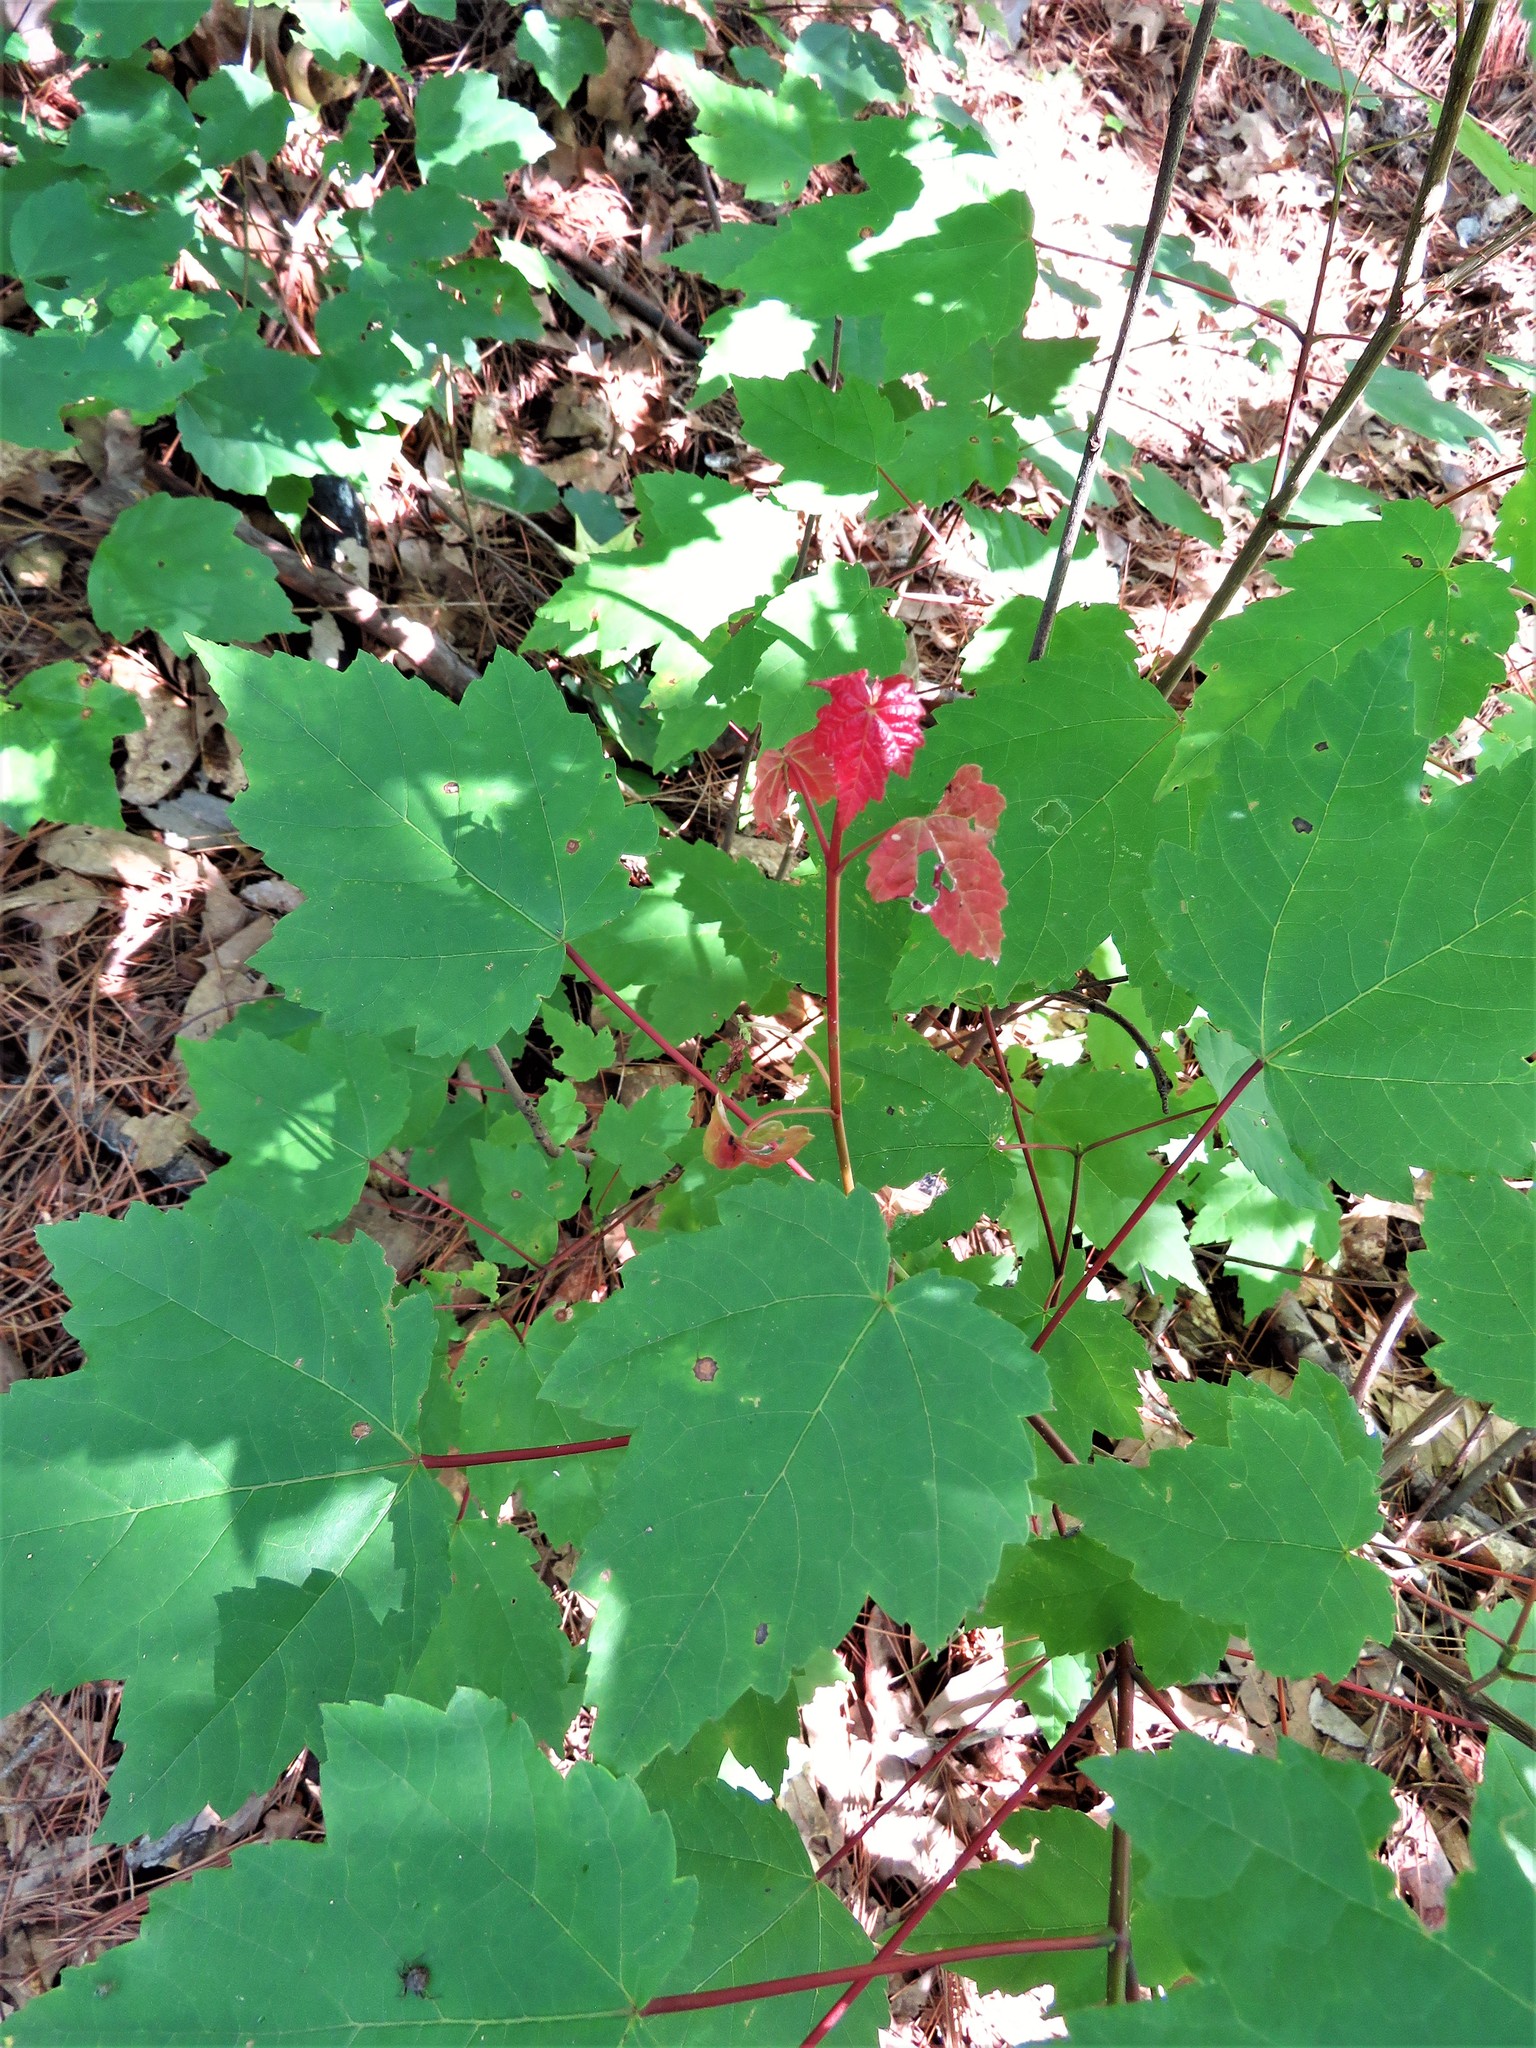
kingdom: Plantae
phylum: Tracheophyta
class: Magnoliopsida
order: Sapindales
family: Sapindaceae
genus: Acer
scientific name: Acer rubrum
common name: Red maple
